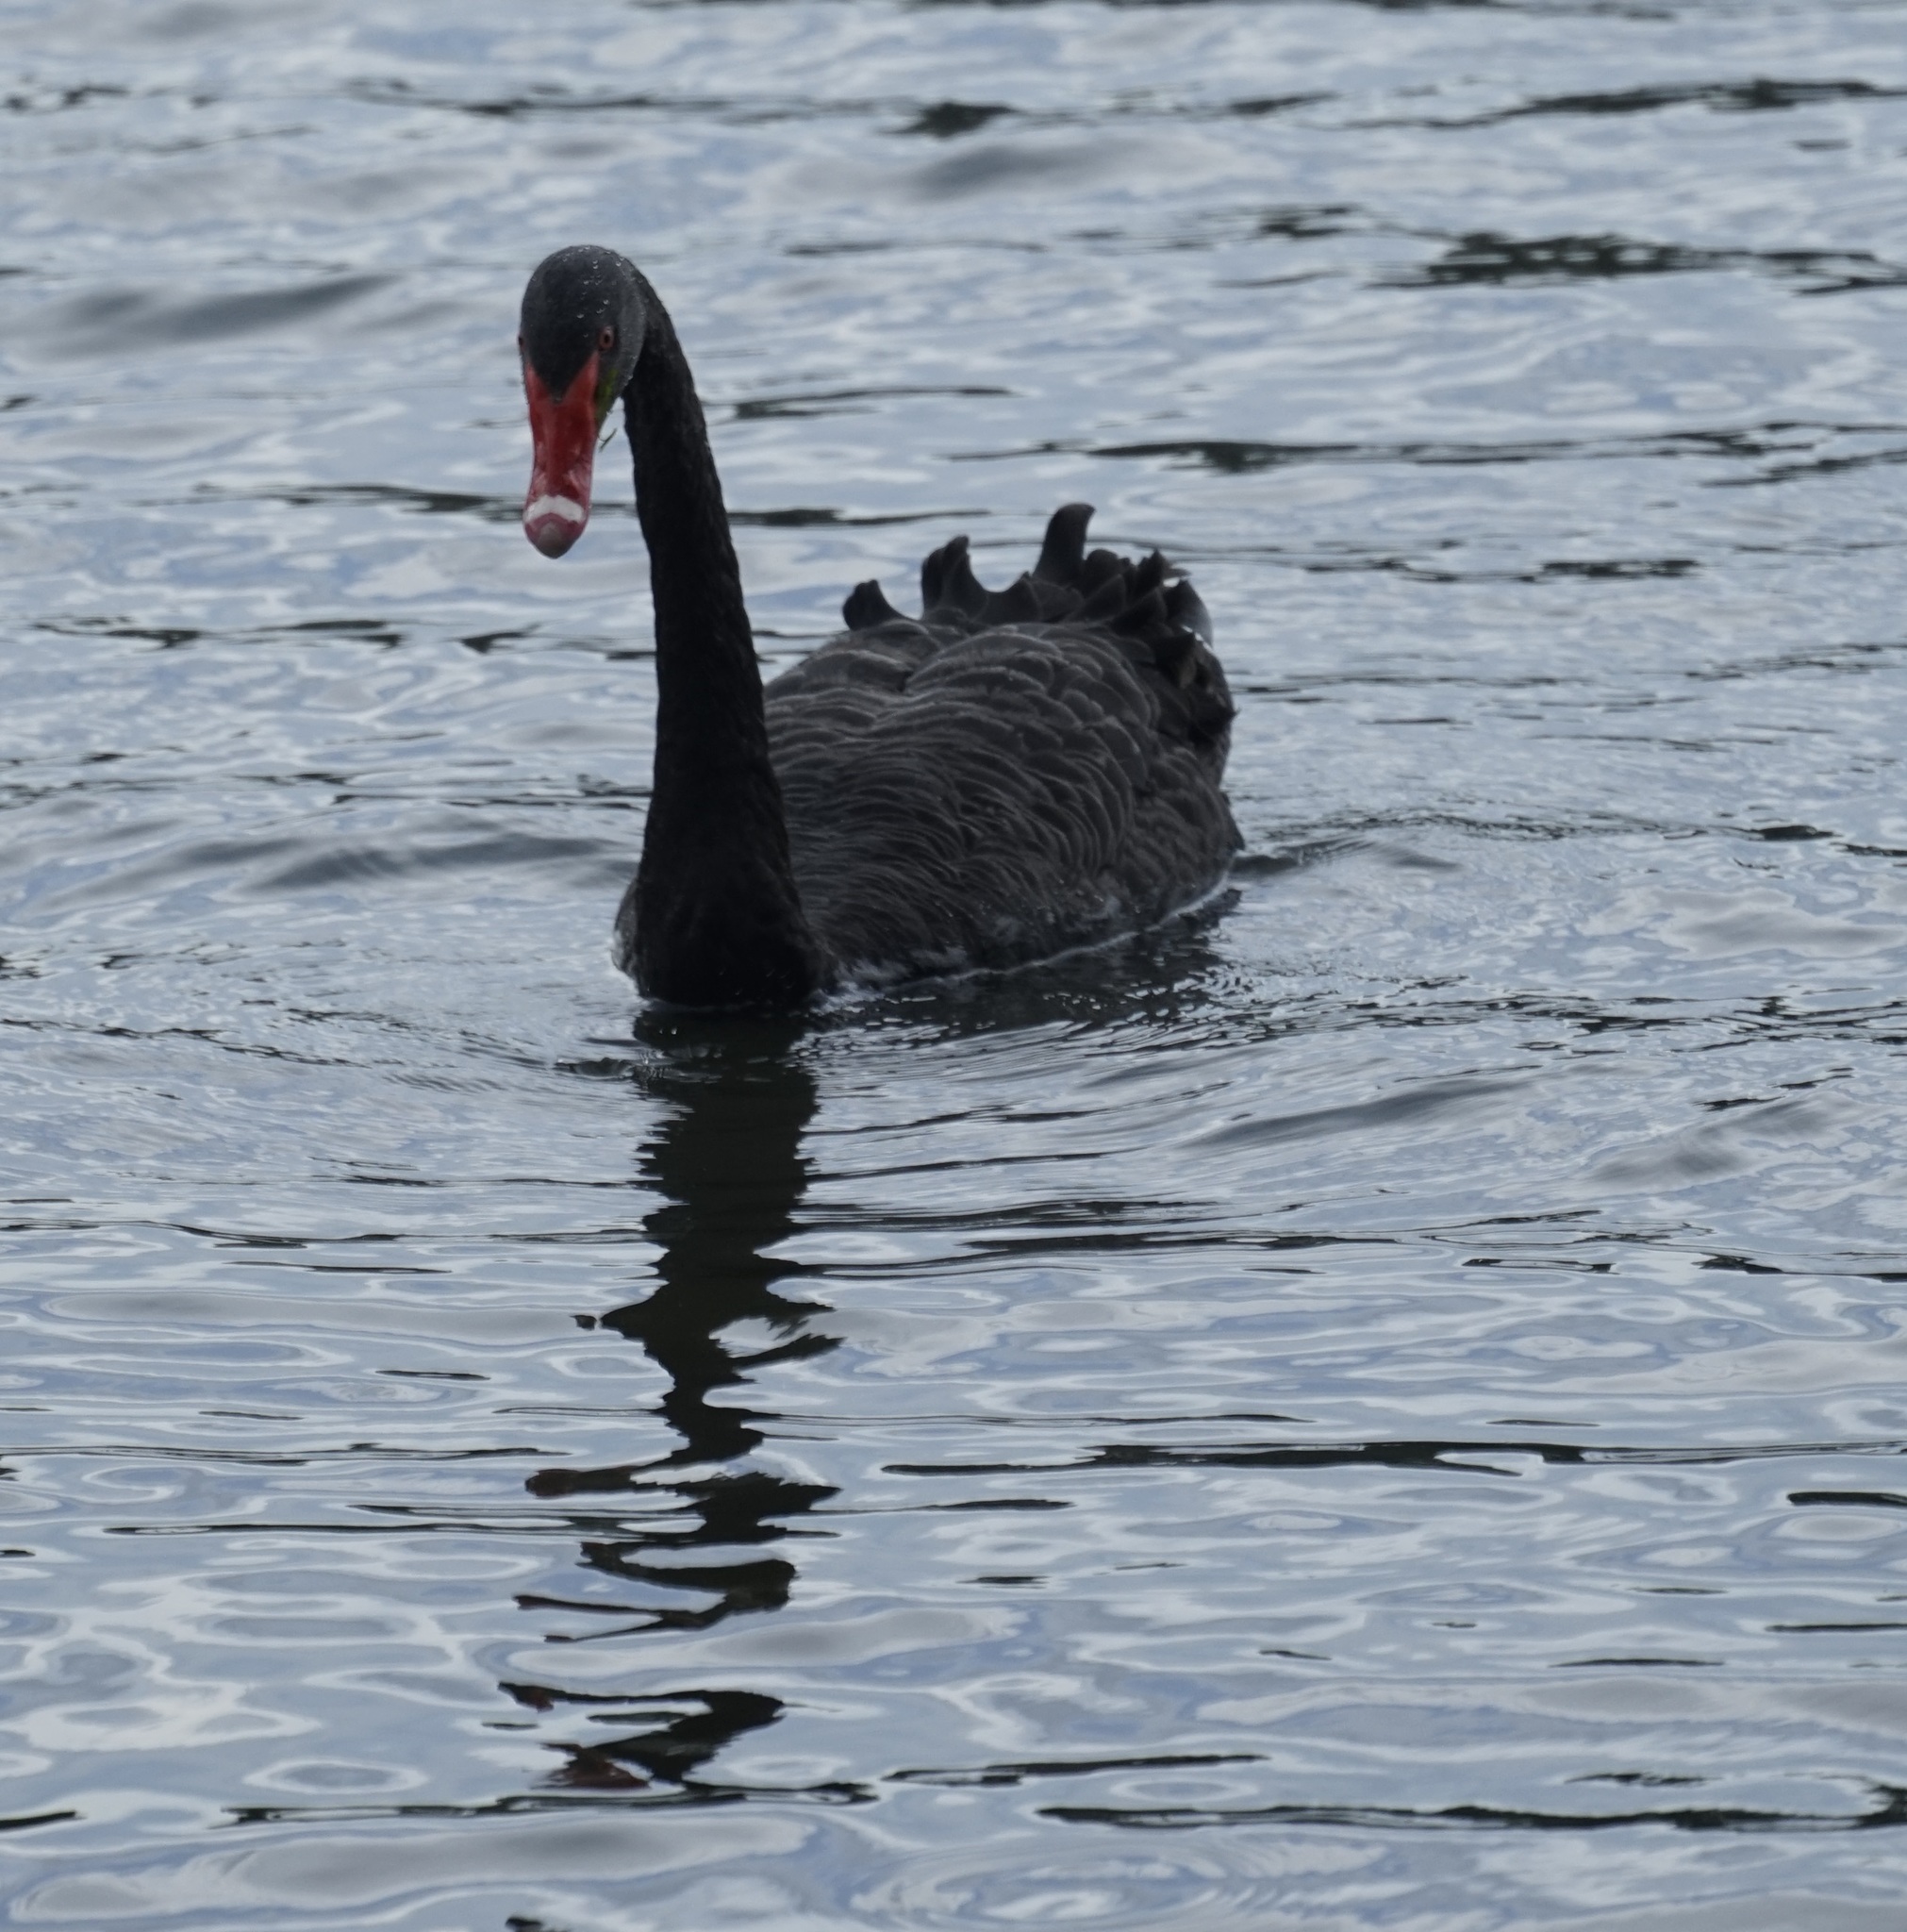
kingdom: Animalia
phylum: Chordata
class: Aves
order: Anseriformes
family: Anatidae
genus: Cygnus
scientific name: Cygnus atratus
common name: Black swan
